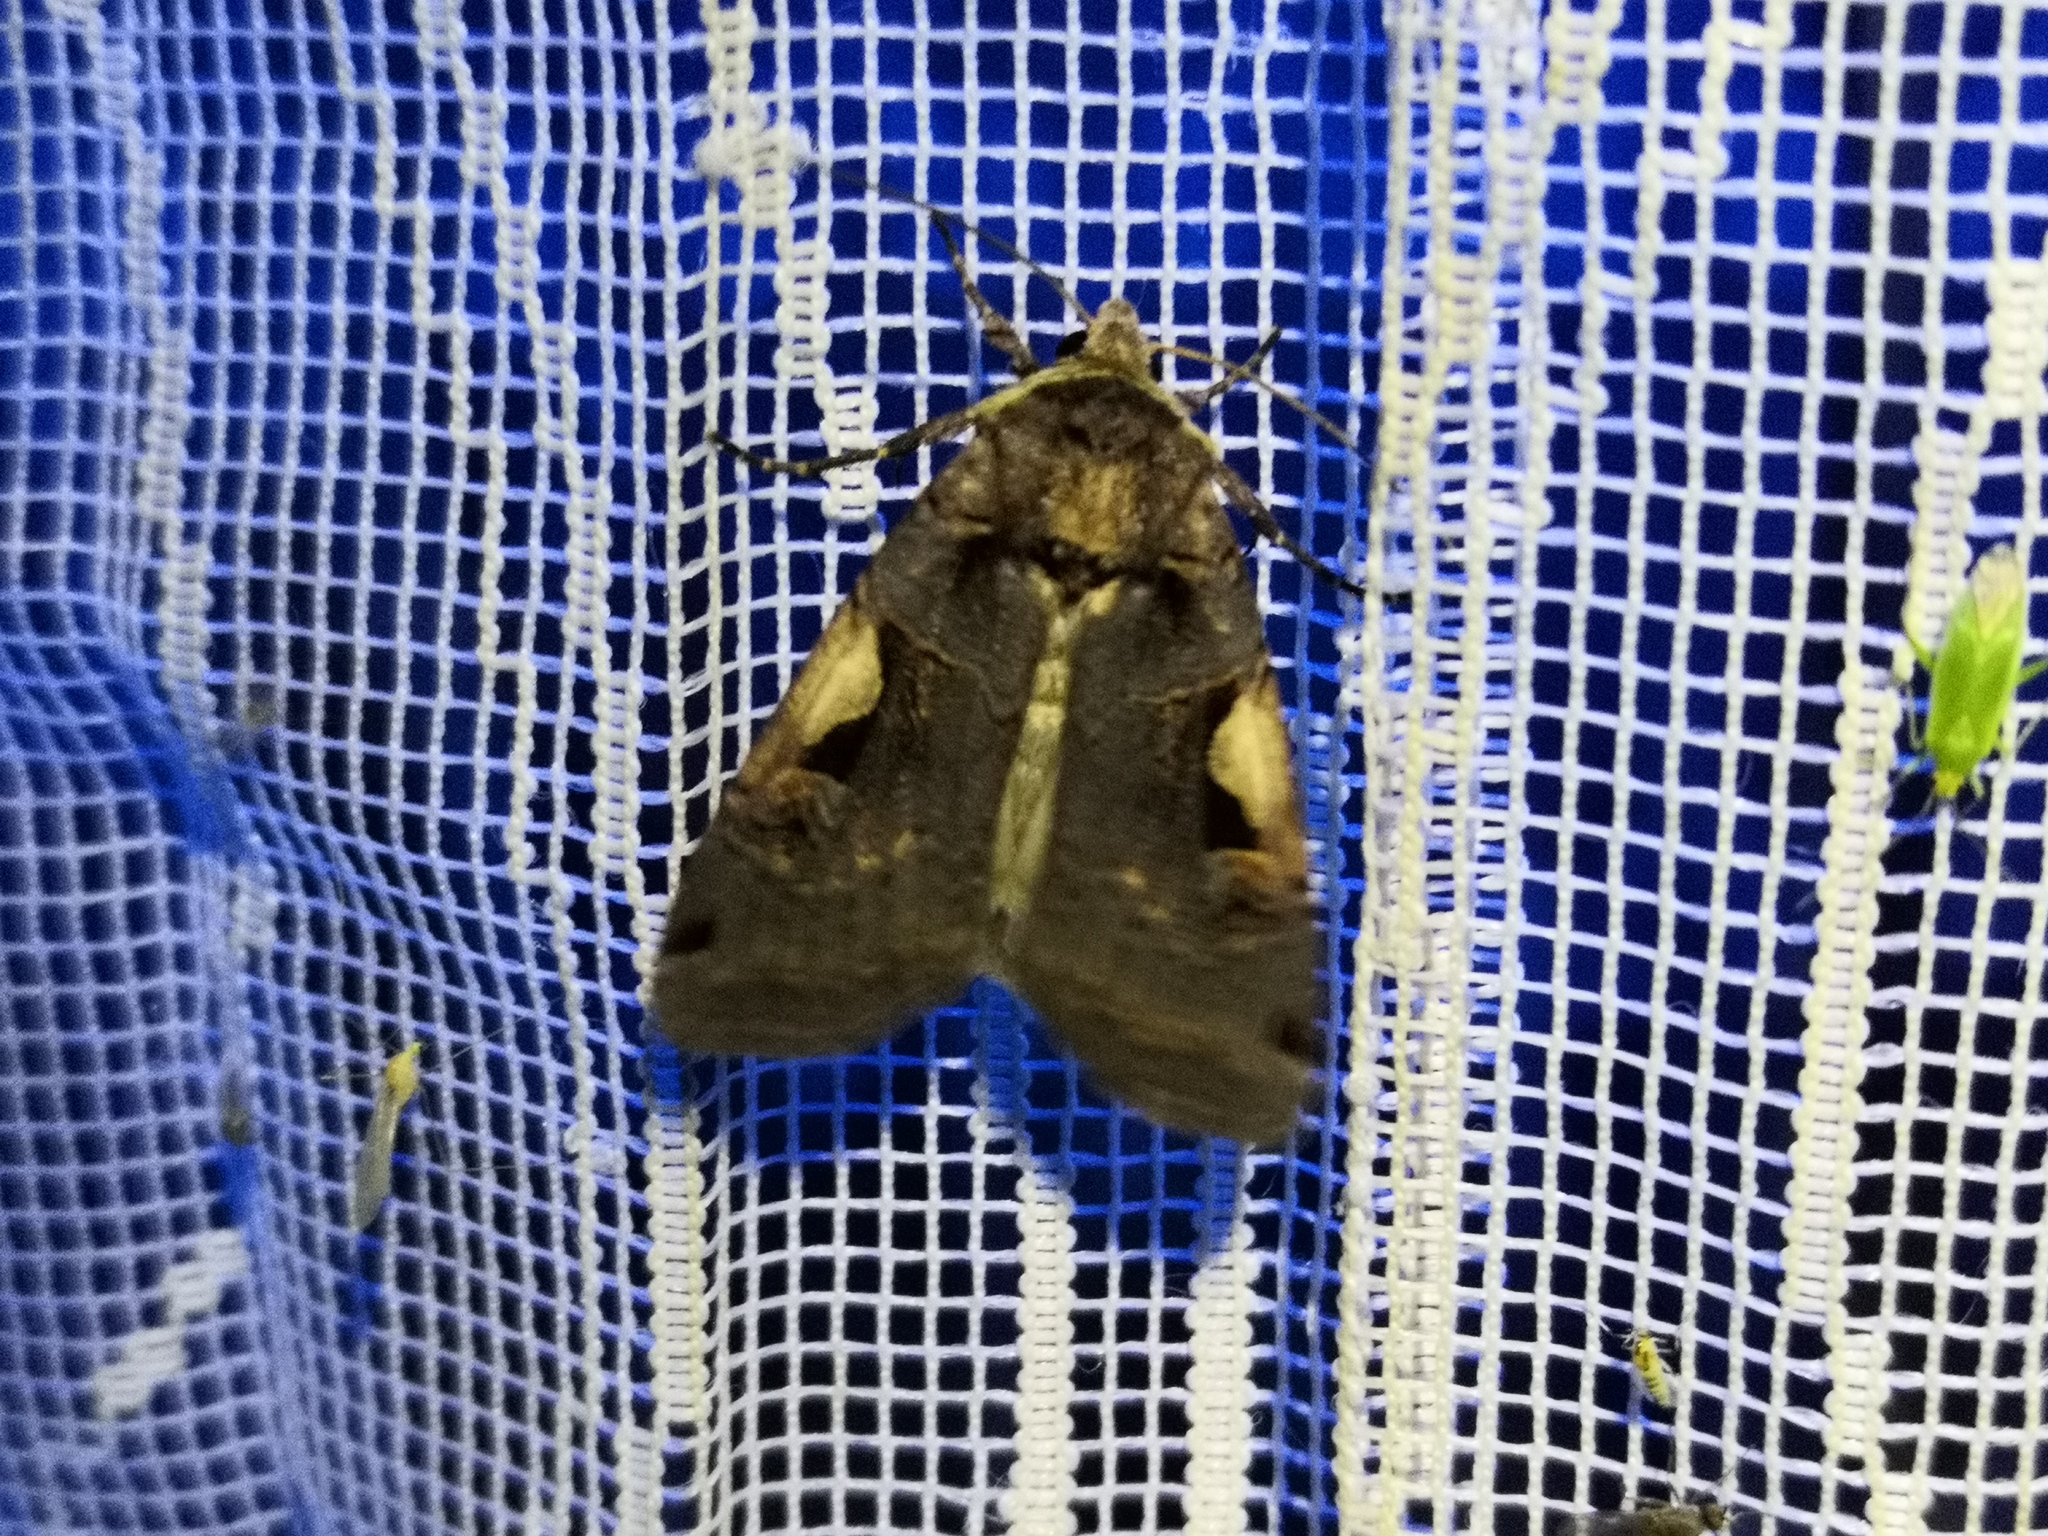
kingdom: Animalia
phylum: Arthropoda
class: Insecta
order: Lepidoptera
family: Noctuidae
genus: Xestia
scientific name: Xestia c-nigrum
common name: Setaceous hebrew character
